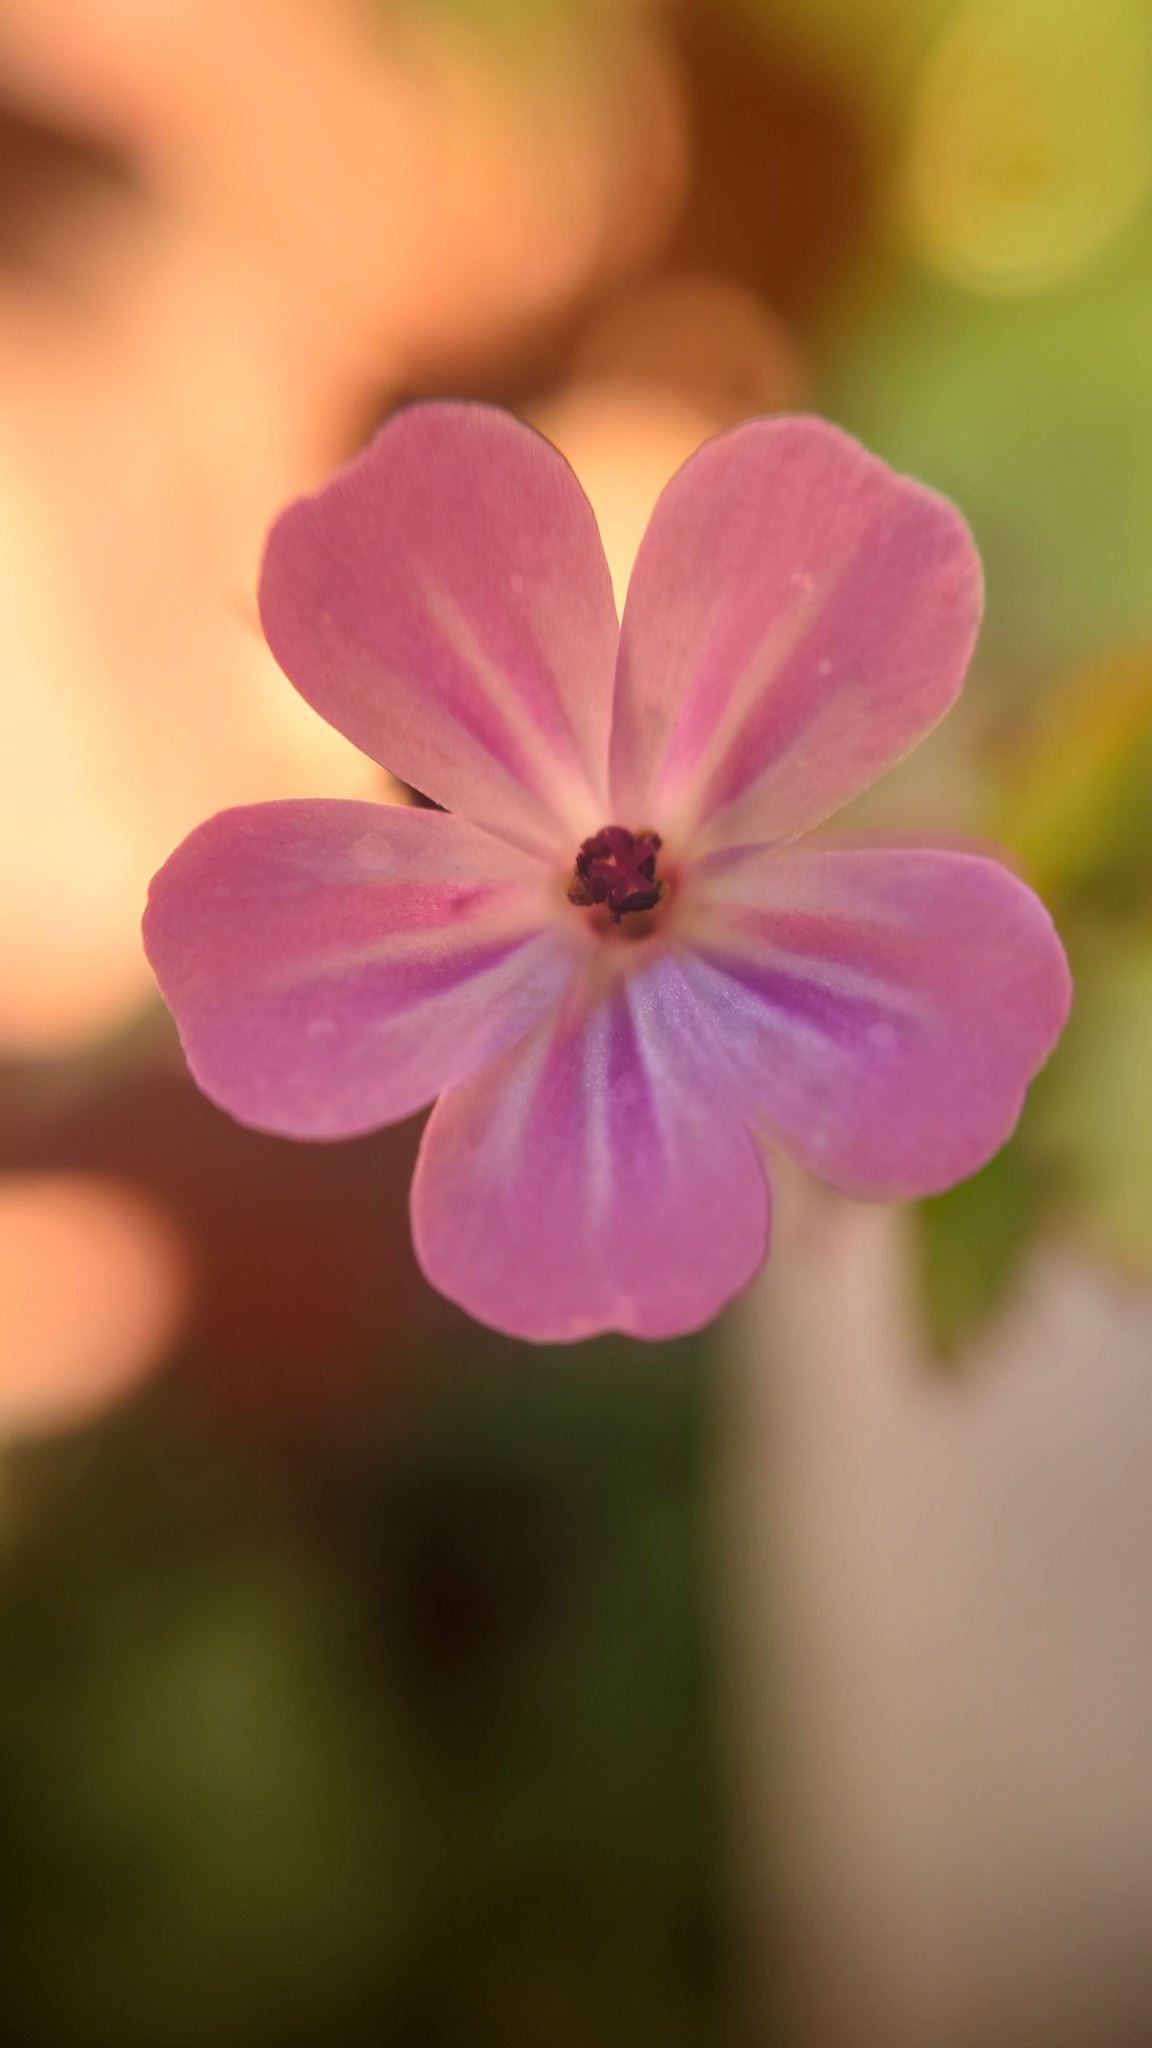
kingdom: Plantae
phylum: Tracheophyta
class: Magnoliopsida
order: Geraniales
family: Geraniaceae
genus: Geranium
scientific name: Geranium robertianum
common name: Herb-robert
